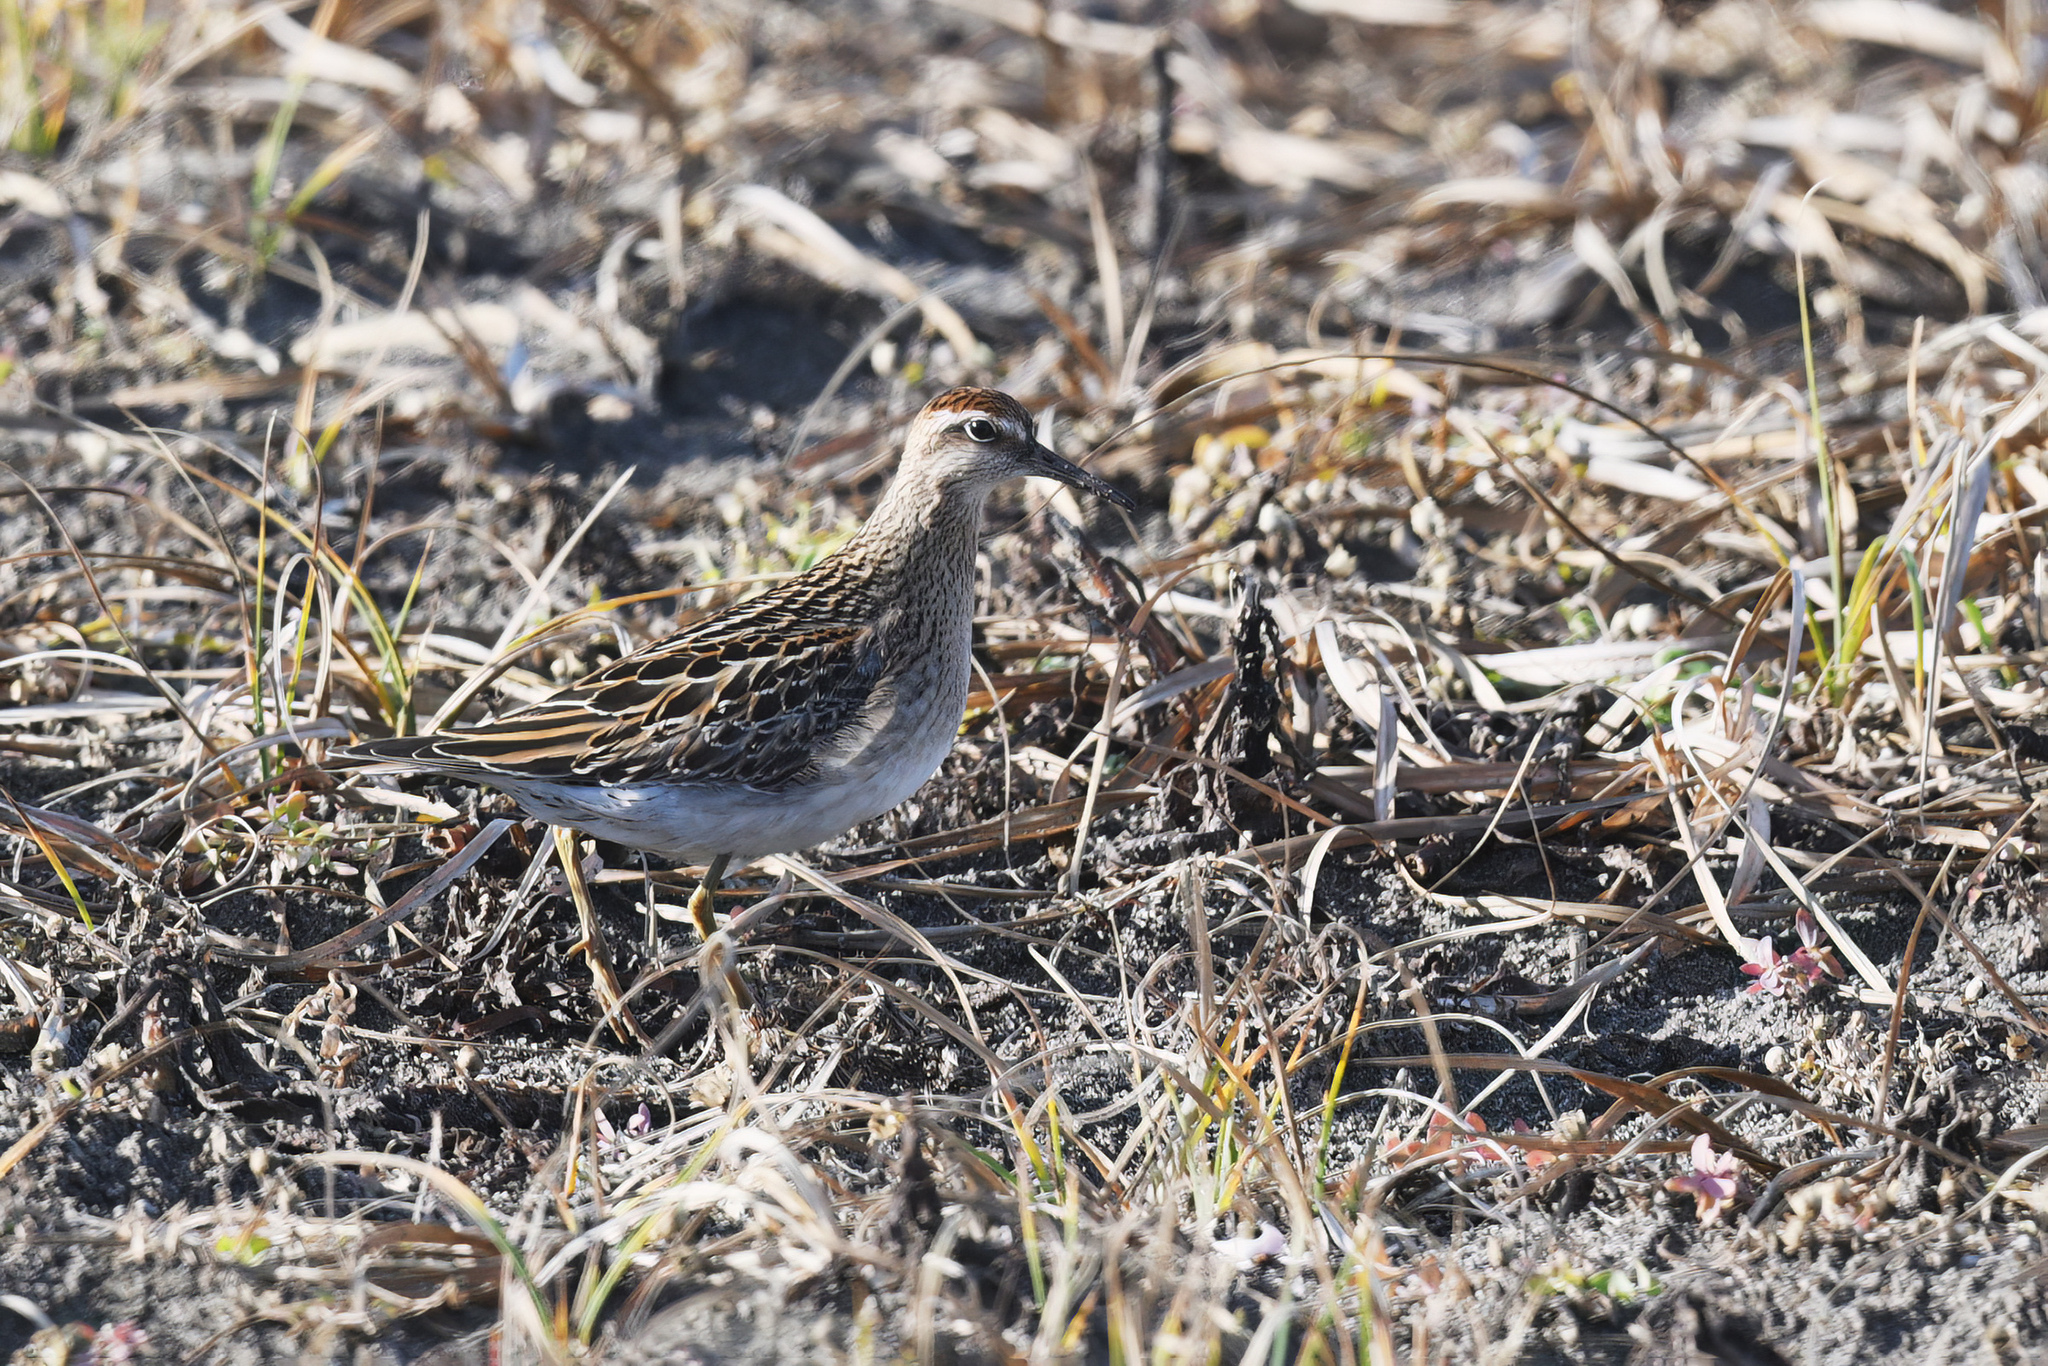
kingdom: Animalia
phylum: Chordata
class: Aves
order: Charadriiformes
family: Scolopacidae
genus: Calidris
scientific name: Calidris acuminata
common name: Sharp-tailed sandpiper
